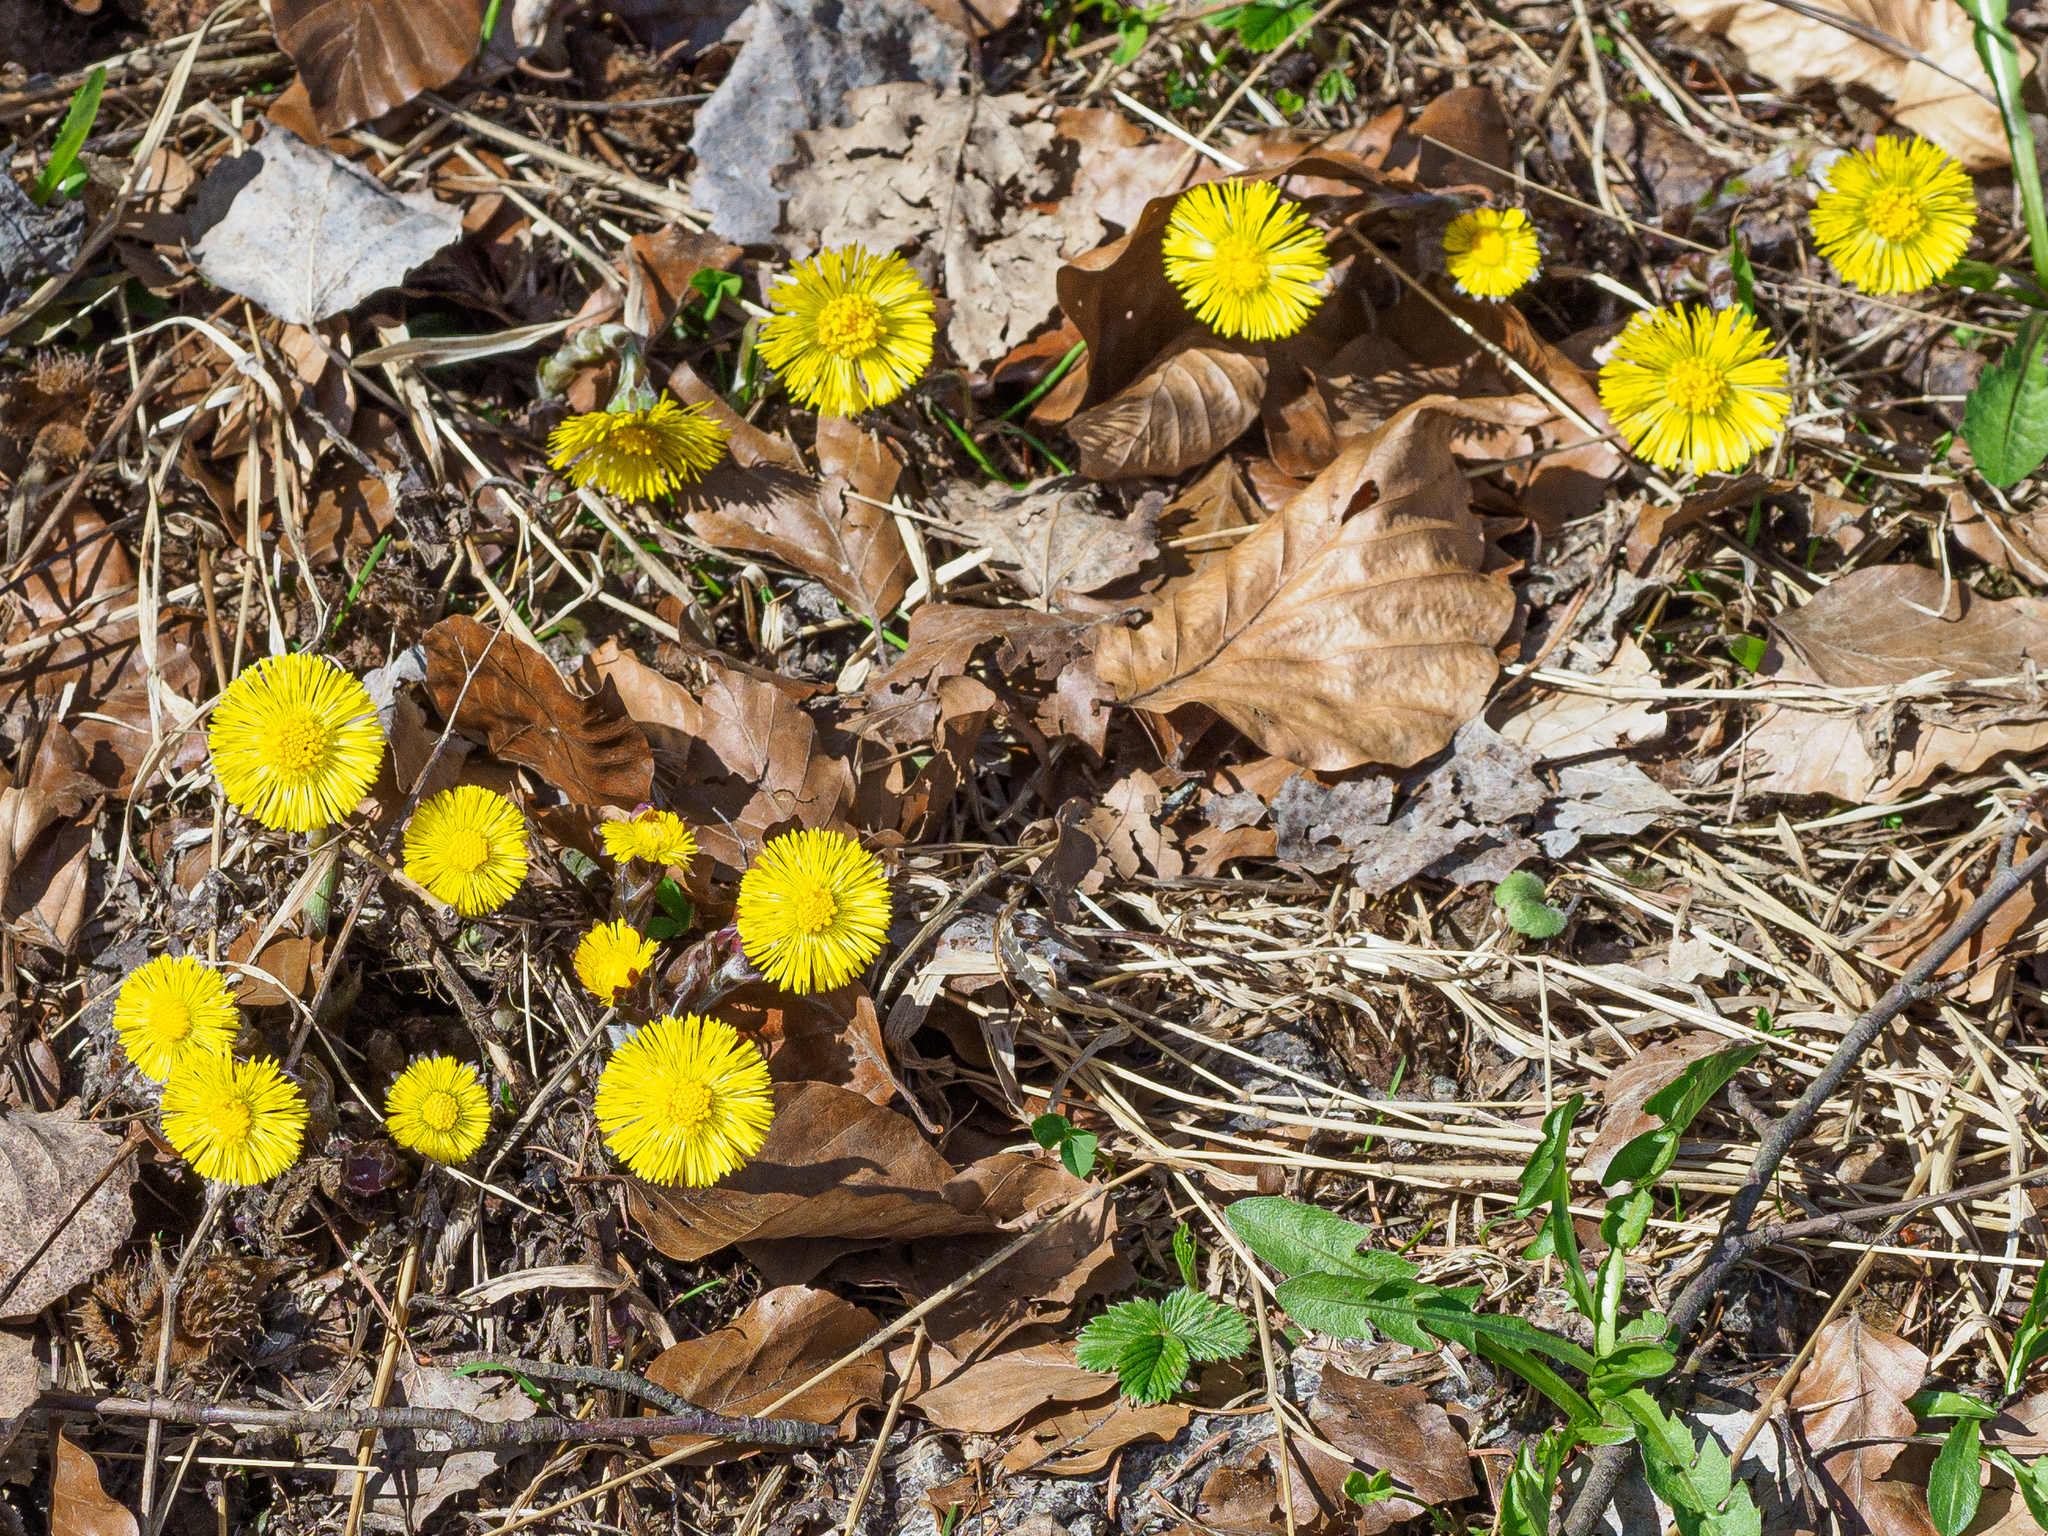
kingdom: Plantae
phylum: Tracheophyta
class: Magnoliopsida
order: Asterales
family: Asteraceae
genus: Tussilago
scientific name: Tussilago farfara
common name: Coltsfoot
